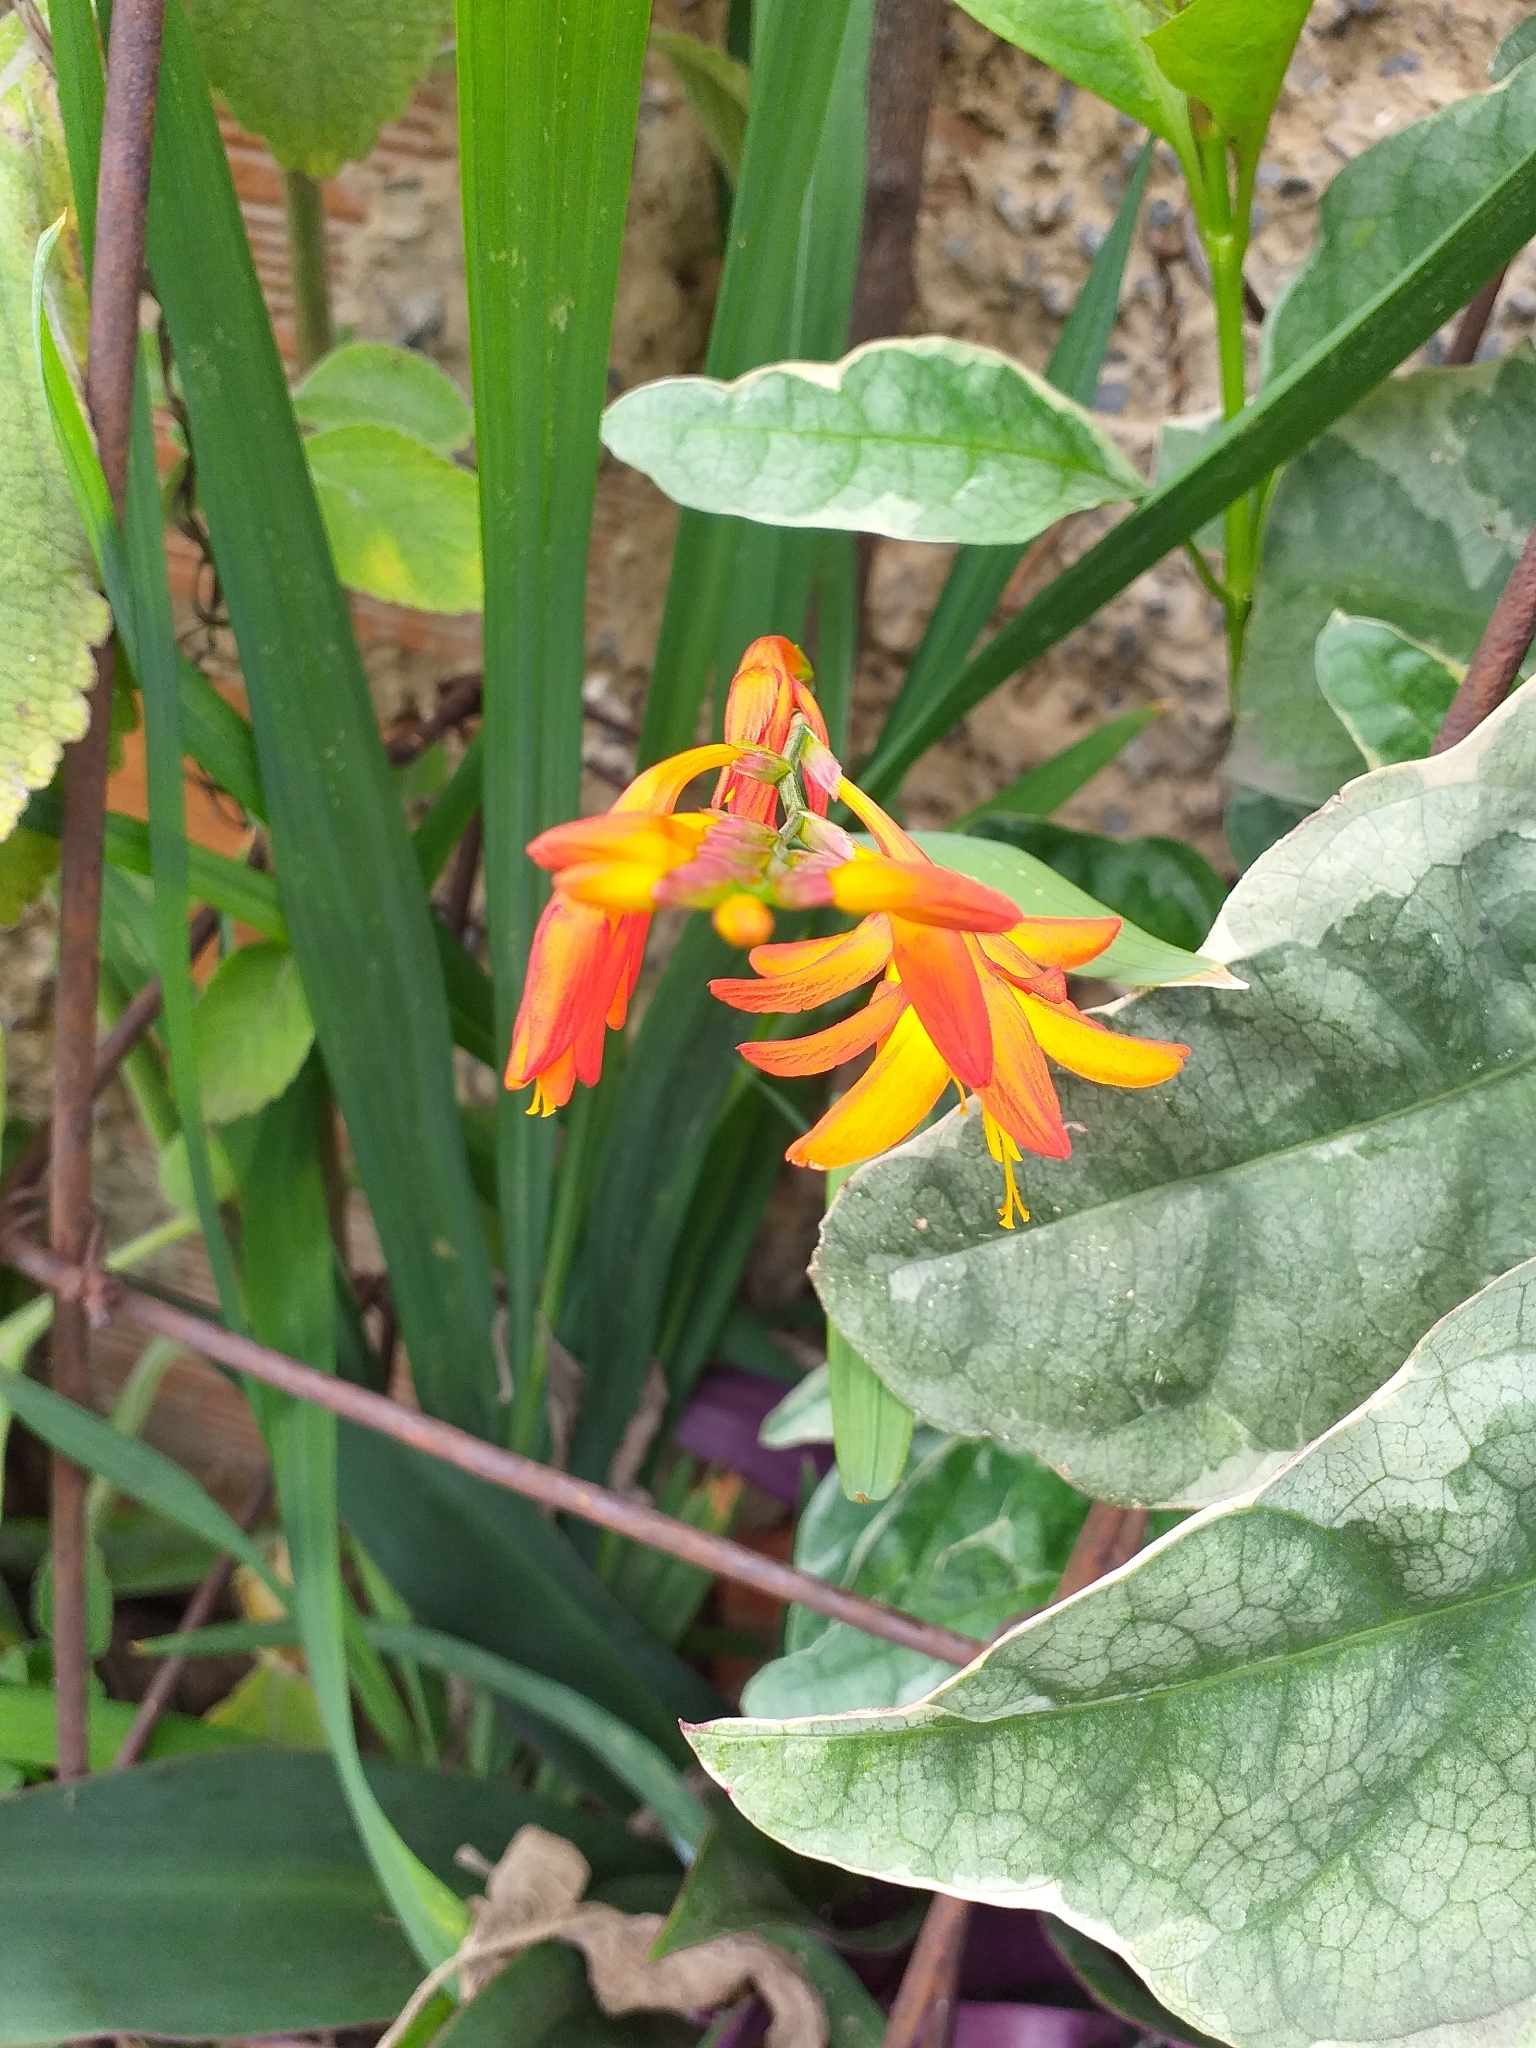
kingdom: Plantae
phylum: Tracheophyta
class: Liliopsida
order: Asparagales
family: Iridaceae
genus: Crocosmia
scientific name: Crocosmia crocosmiiflora
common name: Montbretia
